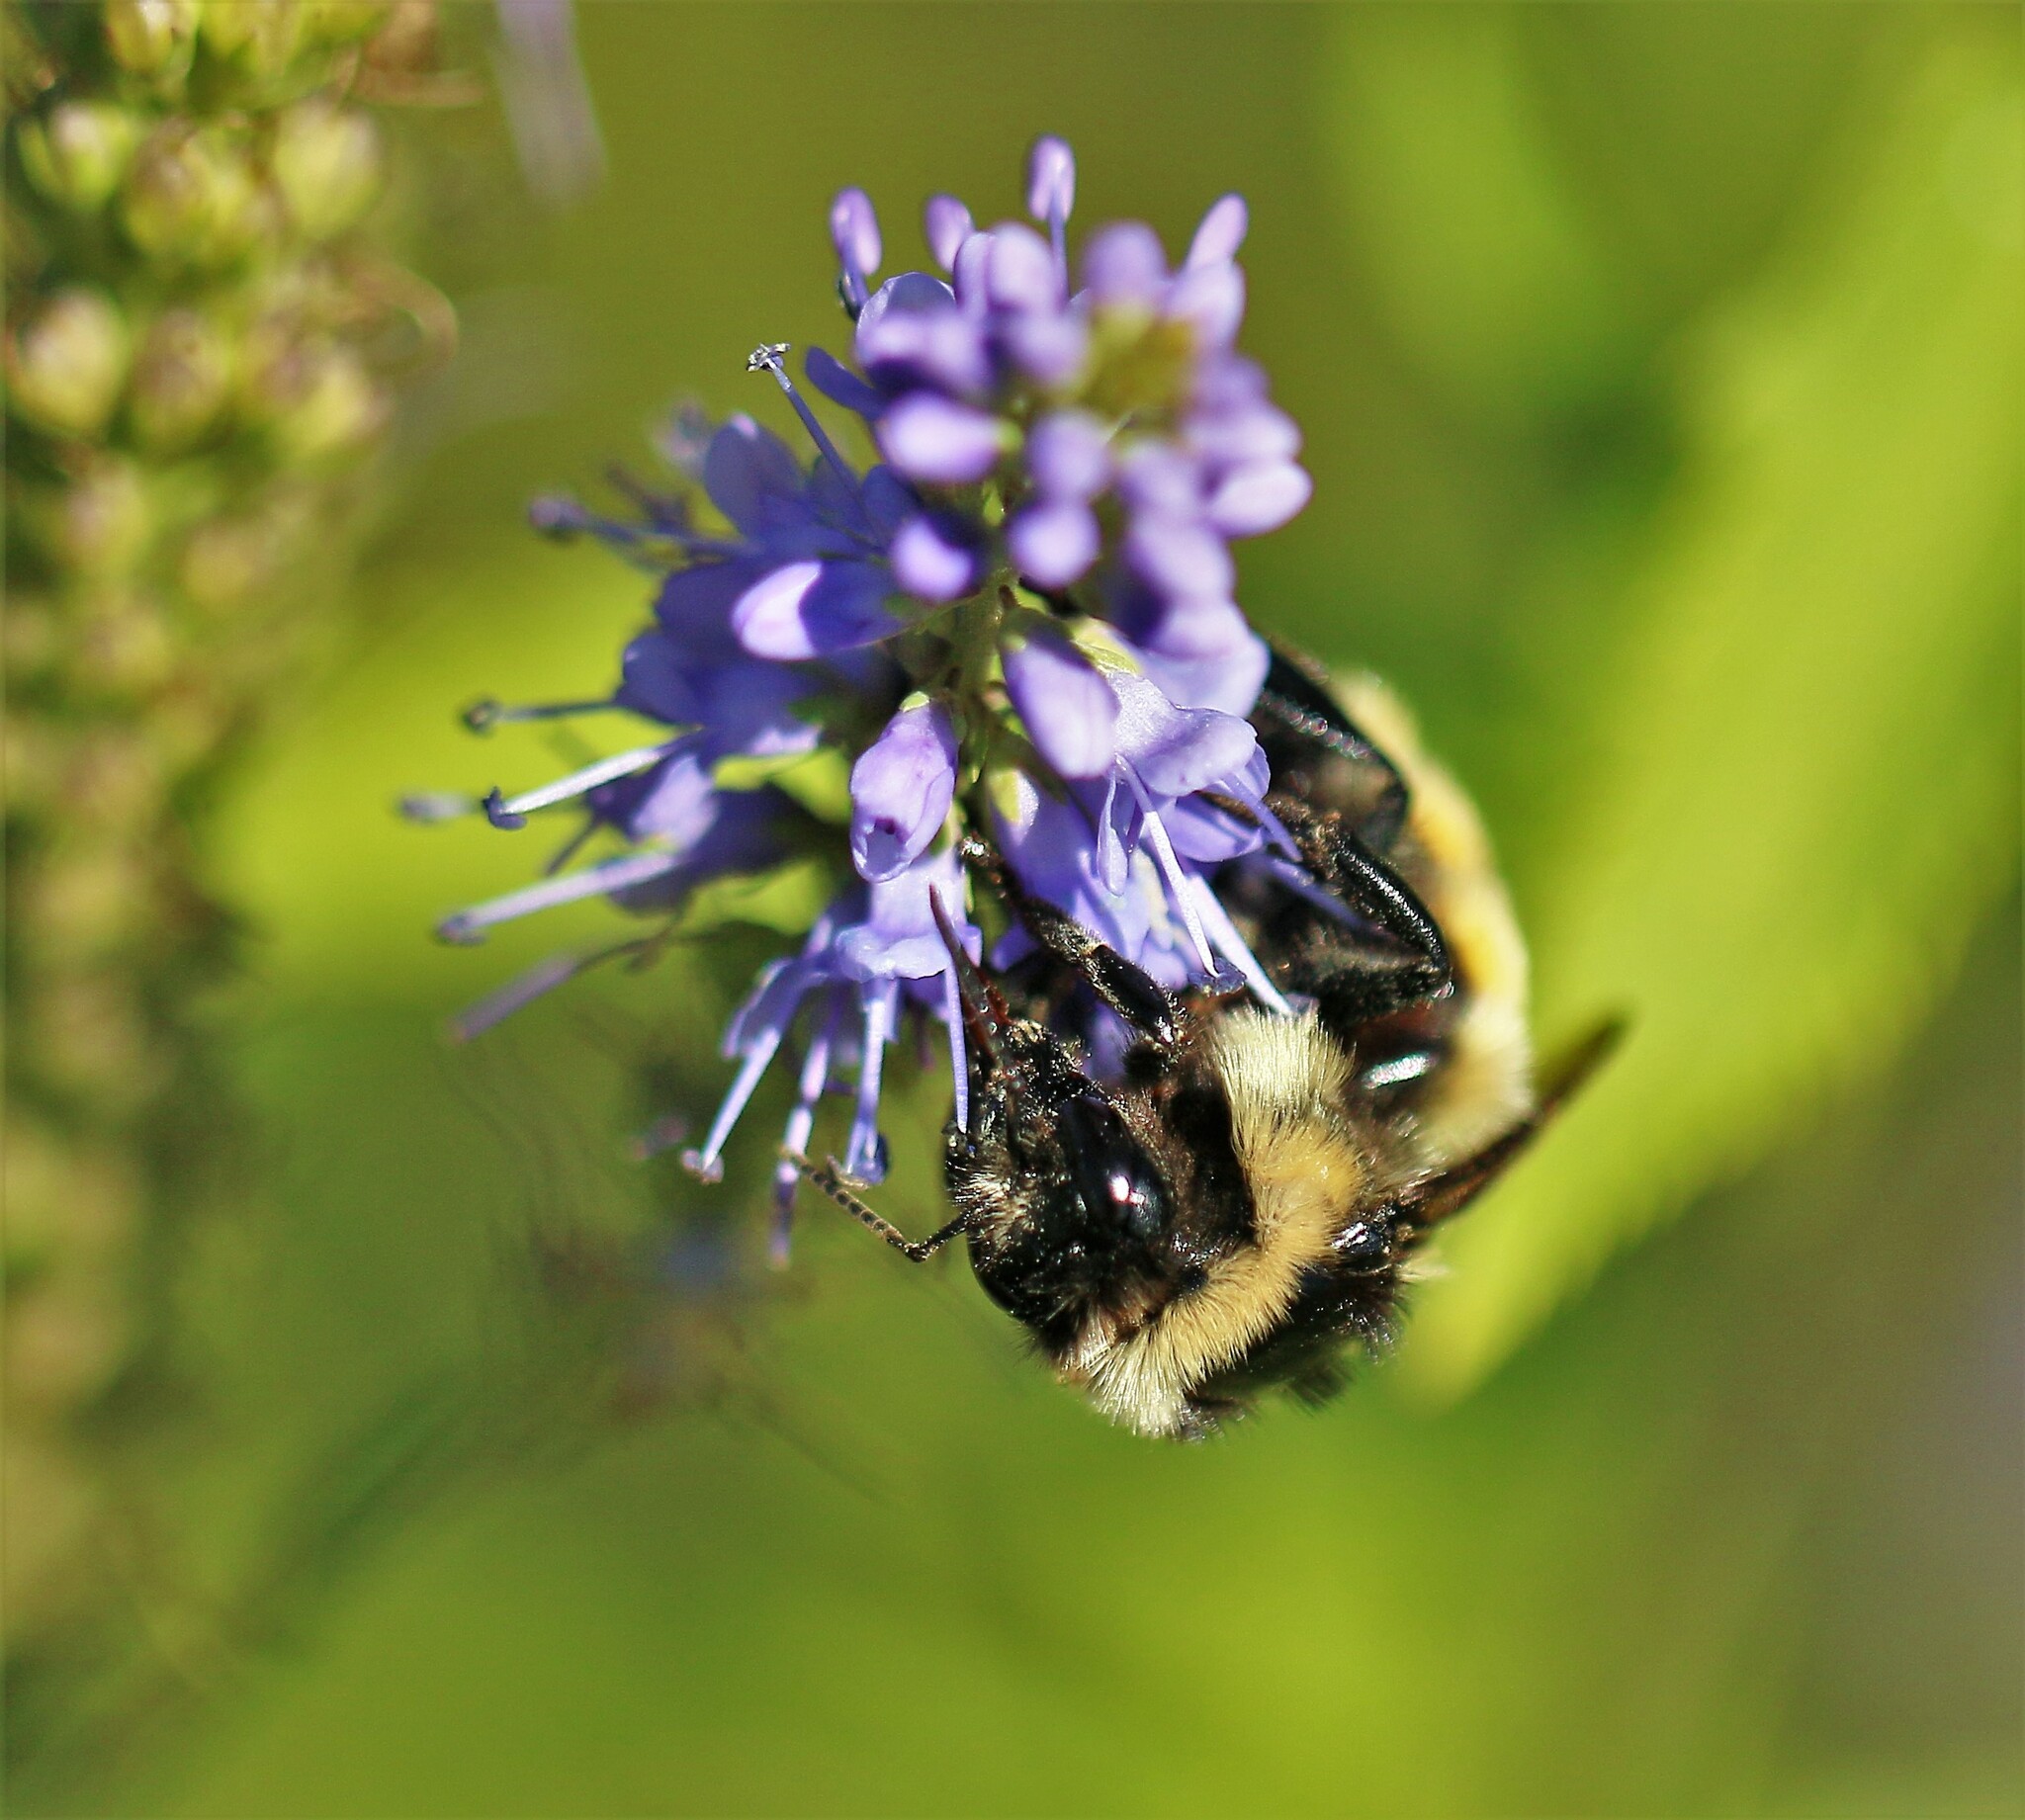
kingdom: Animalia
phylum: Arthropoda
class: Insecta
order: Hymenoptera
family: Apidae
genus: Bombus
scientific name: Bombus ternarius
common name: Tri-colored bumble bee
